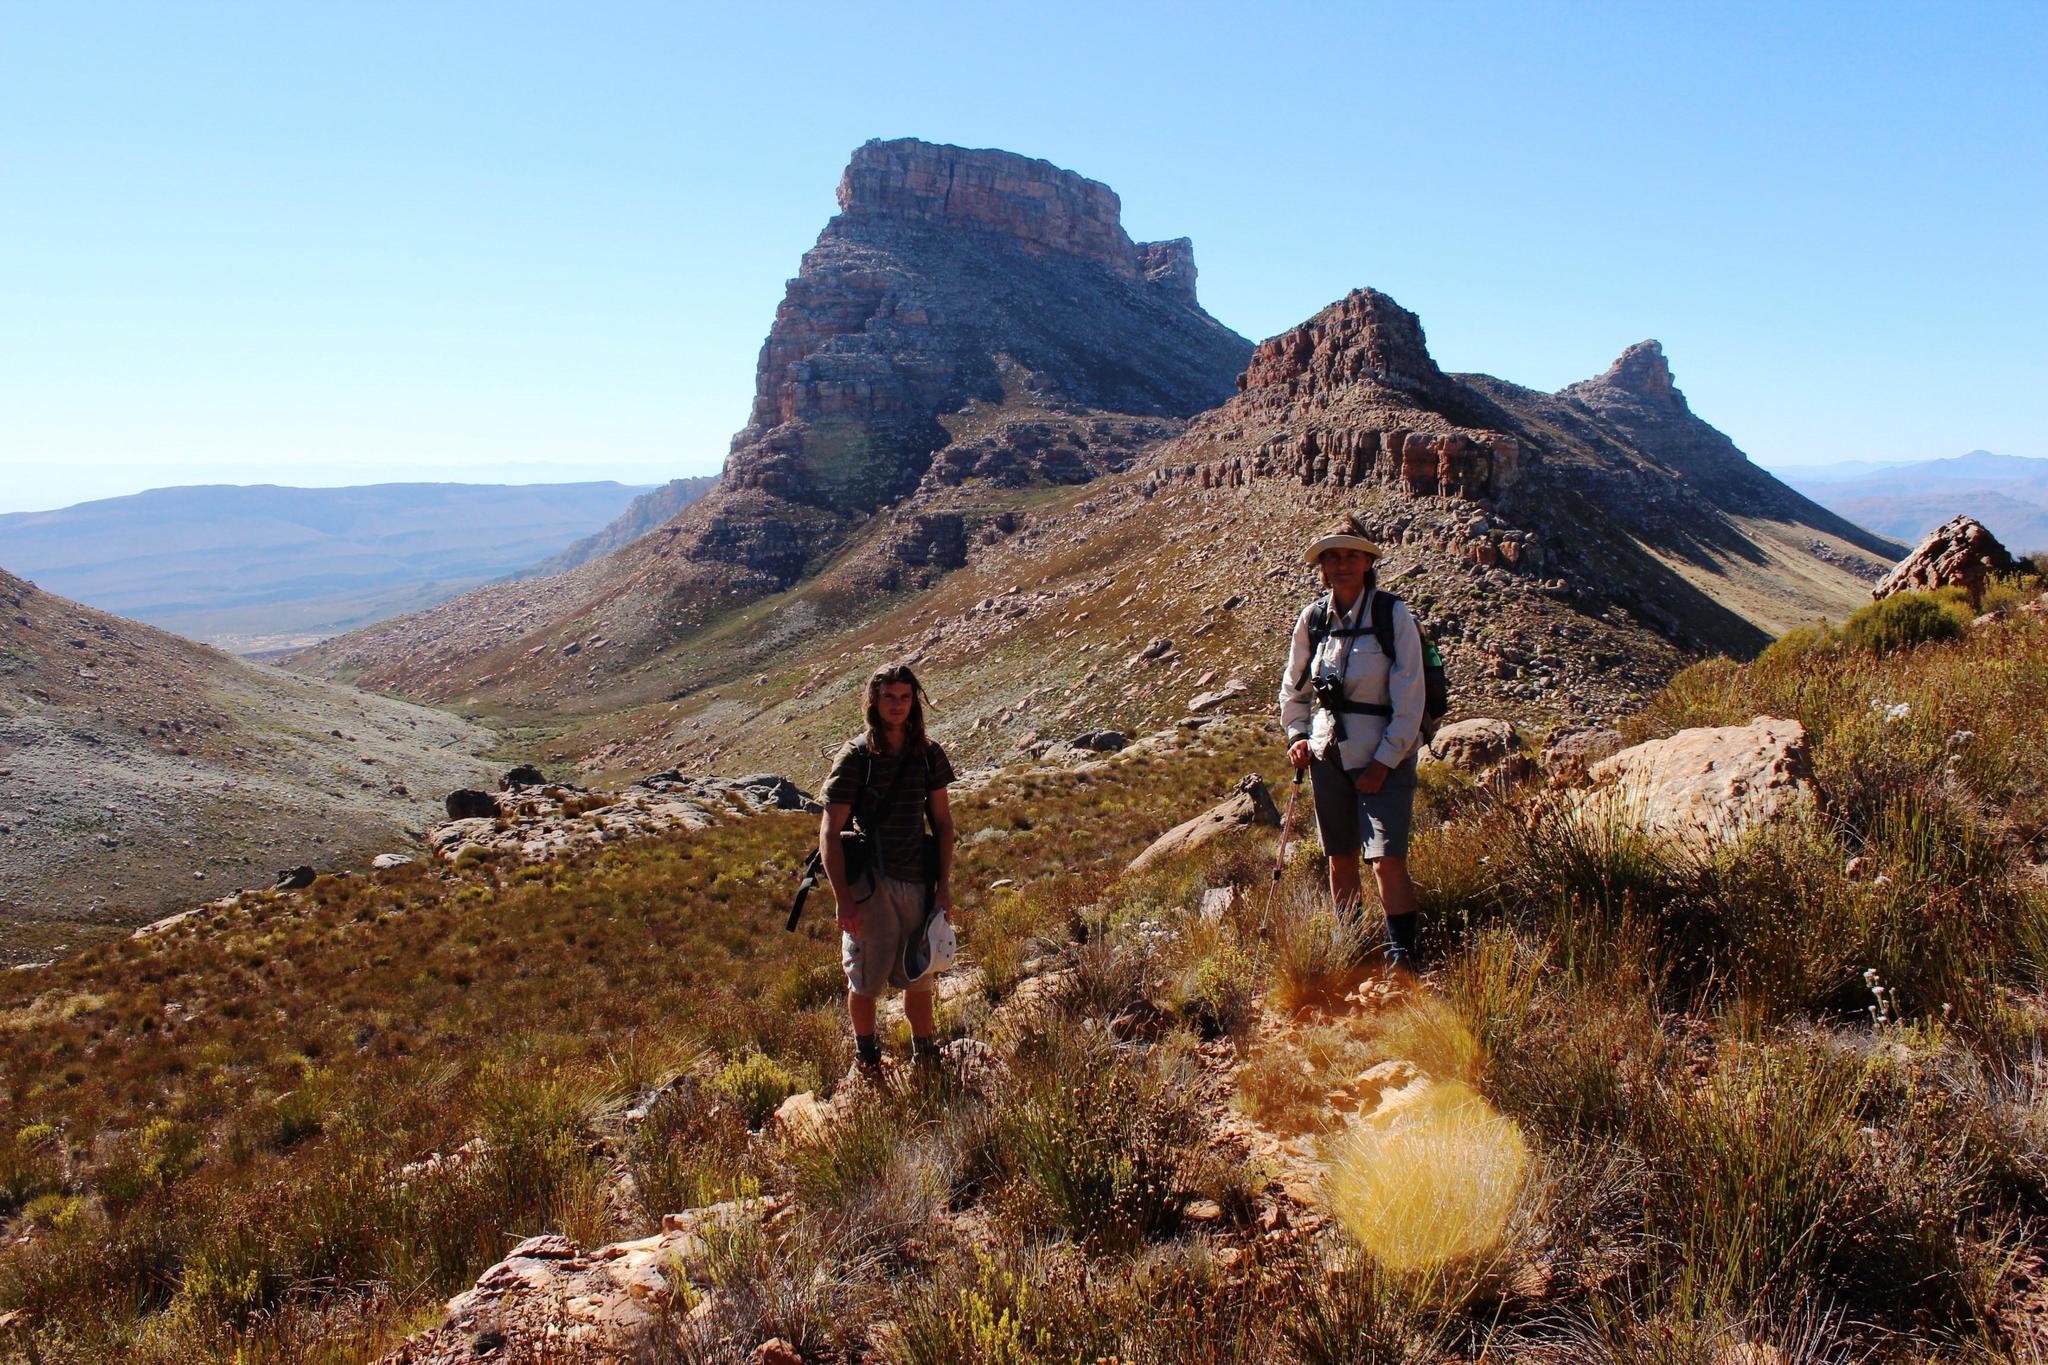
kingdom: Plantae
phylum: Tracheophyta
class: Liliopsida
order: Poales
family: Restionaceae
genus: Cannomois
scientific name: Cannomois parviflora
